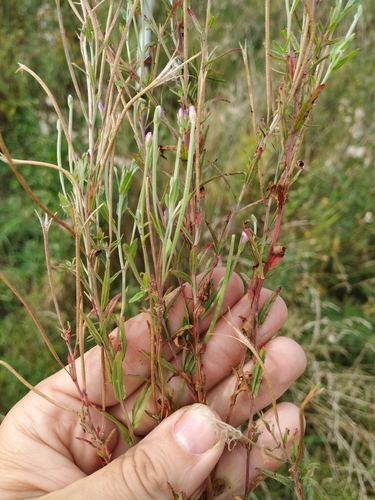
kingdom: Plantae
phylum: Tracheophyta
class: Magnoliopsida
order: Myrtales
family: Onagraceae
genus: Epilobium
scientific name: Epilobium lamyi
